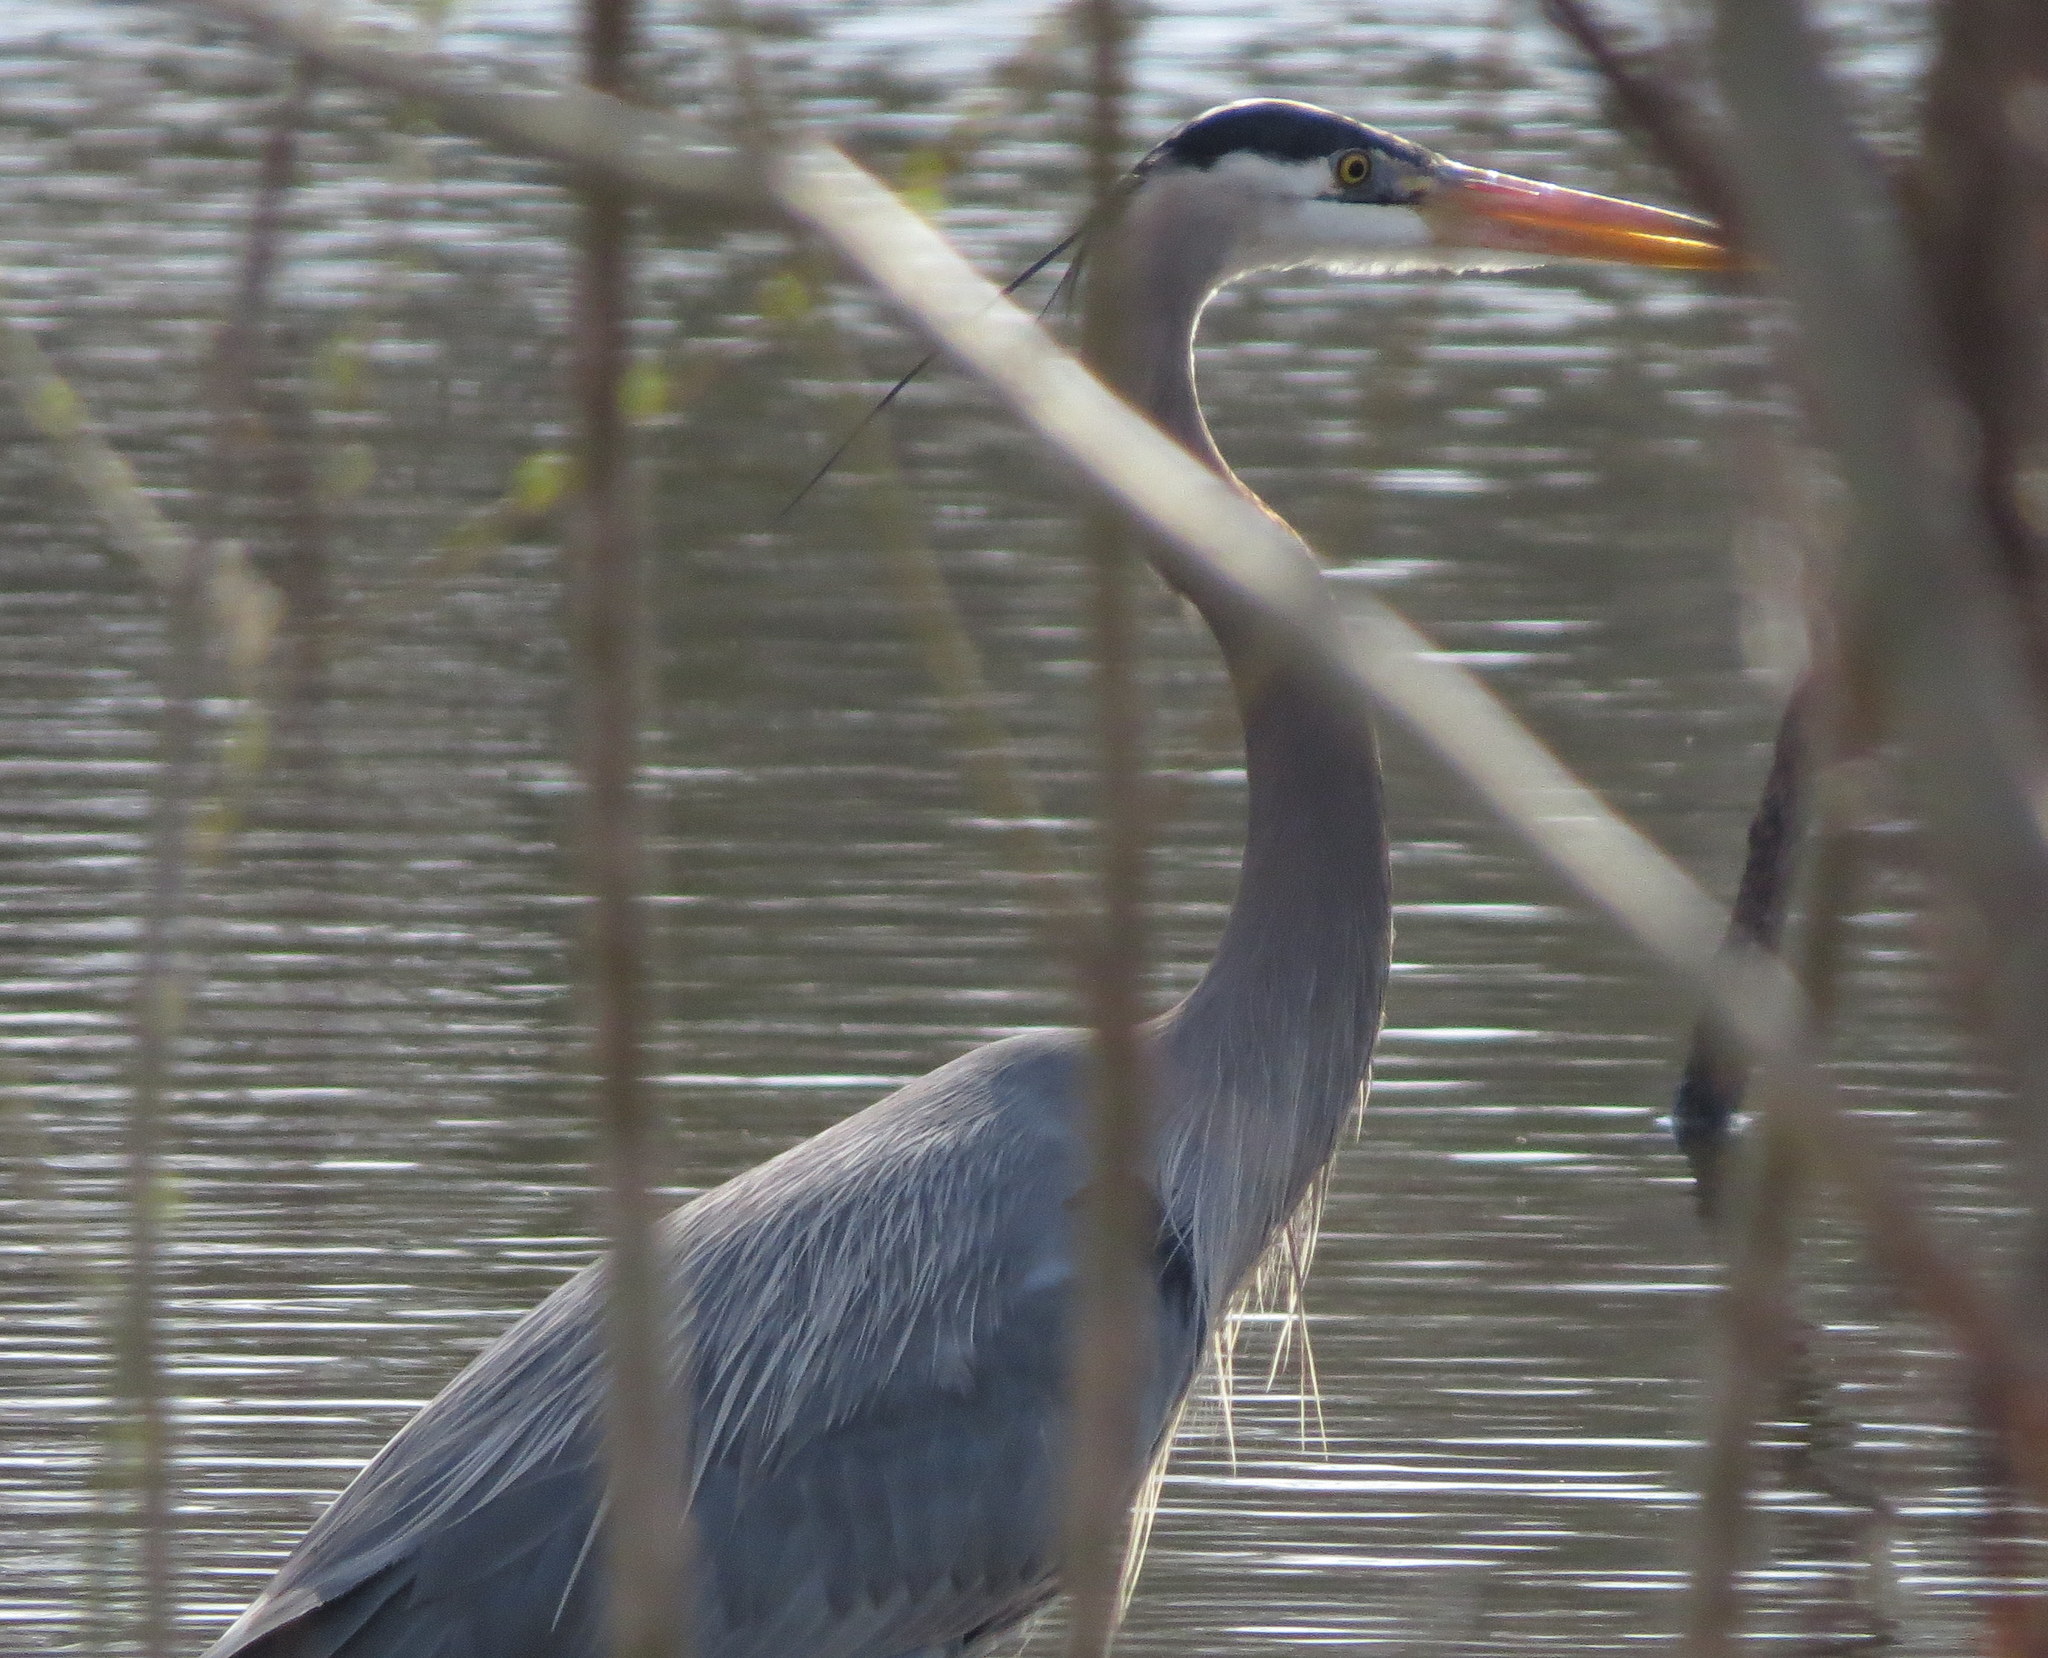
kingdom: Animalia
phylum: Chordata
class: Aves
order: Pelecaniformes
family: Ardeidae
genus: Ardea
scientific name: Ardea herodias
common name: Great blue heron
